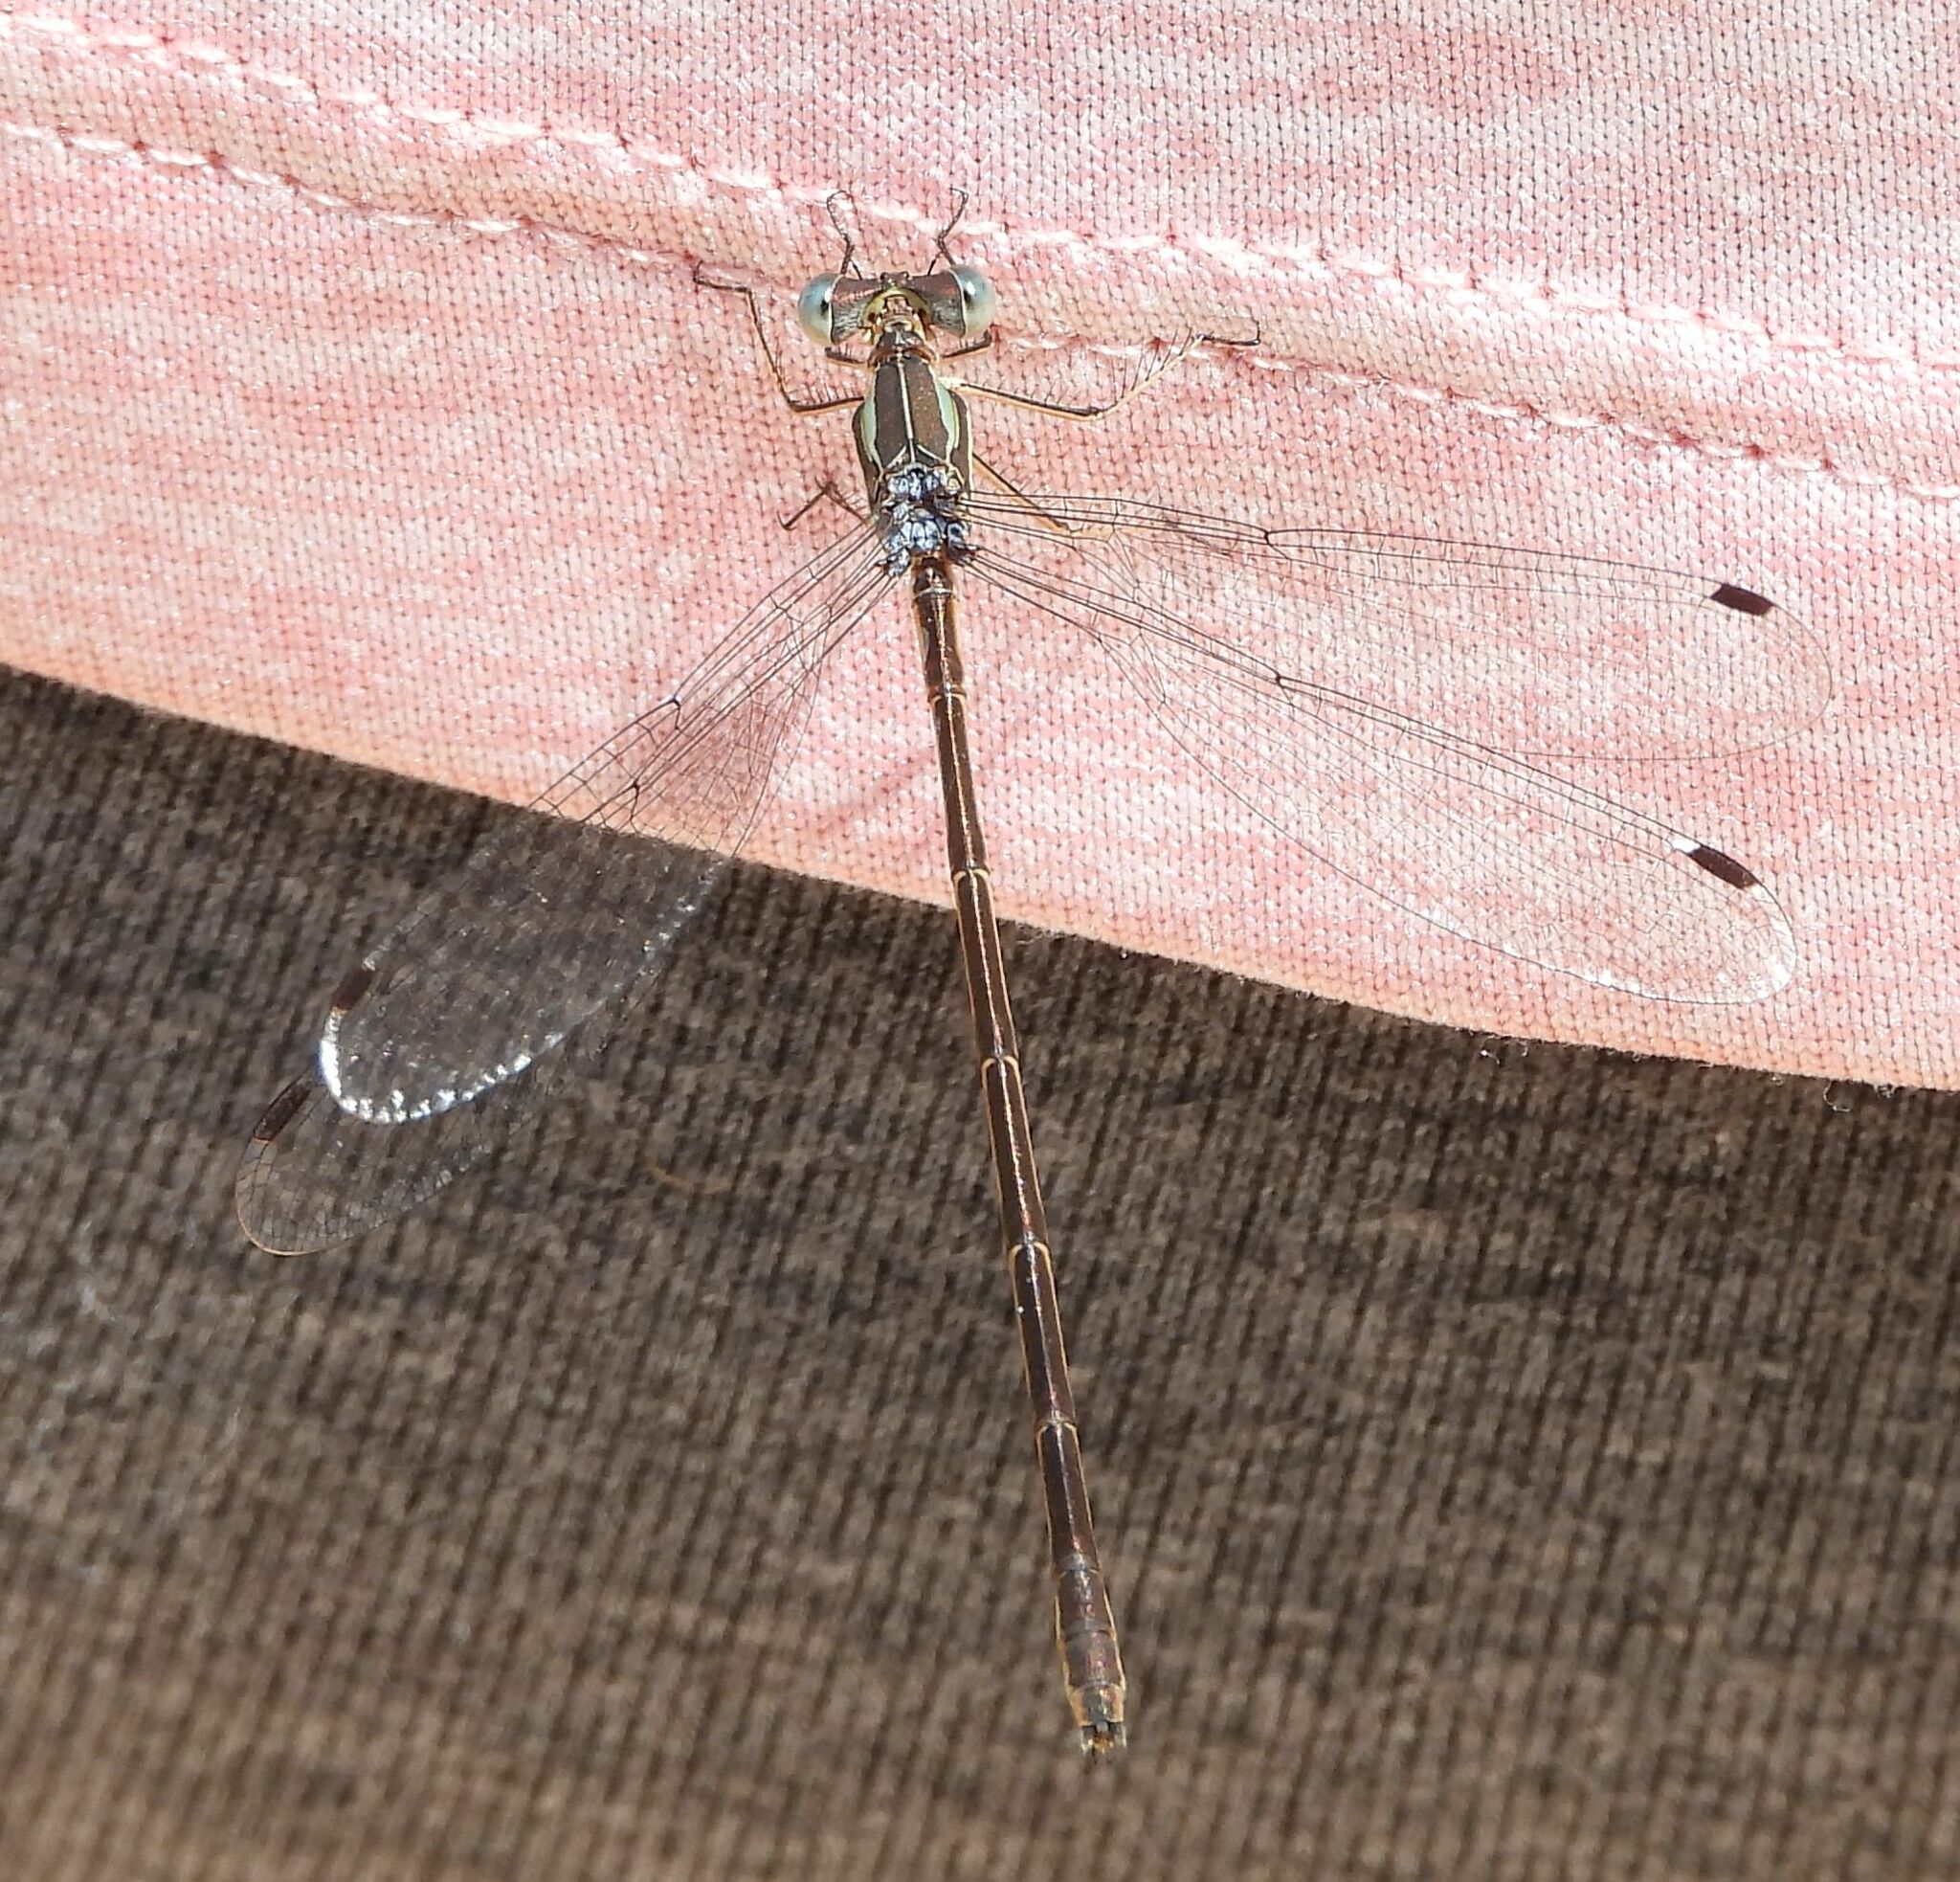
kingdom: Animalia
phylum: Arthropoda
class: Insecta
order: Odonata
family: Lestidae
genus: Lestes
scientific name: Lestes rectangularis
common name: Slender spreadwing
